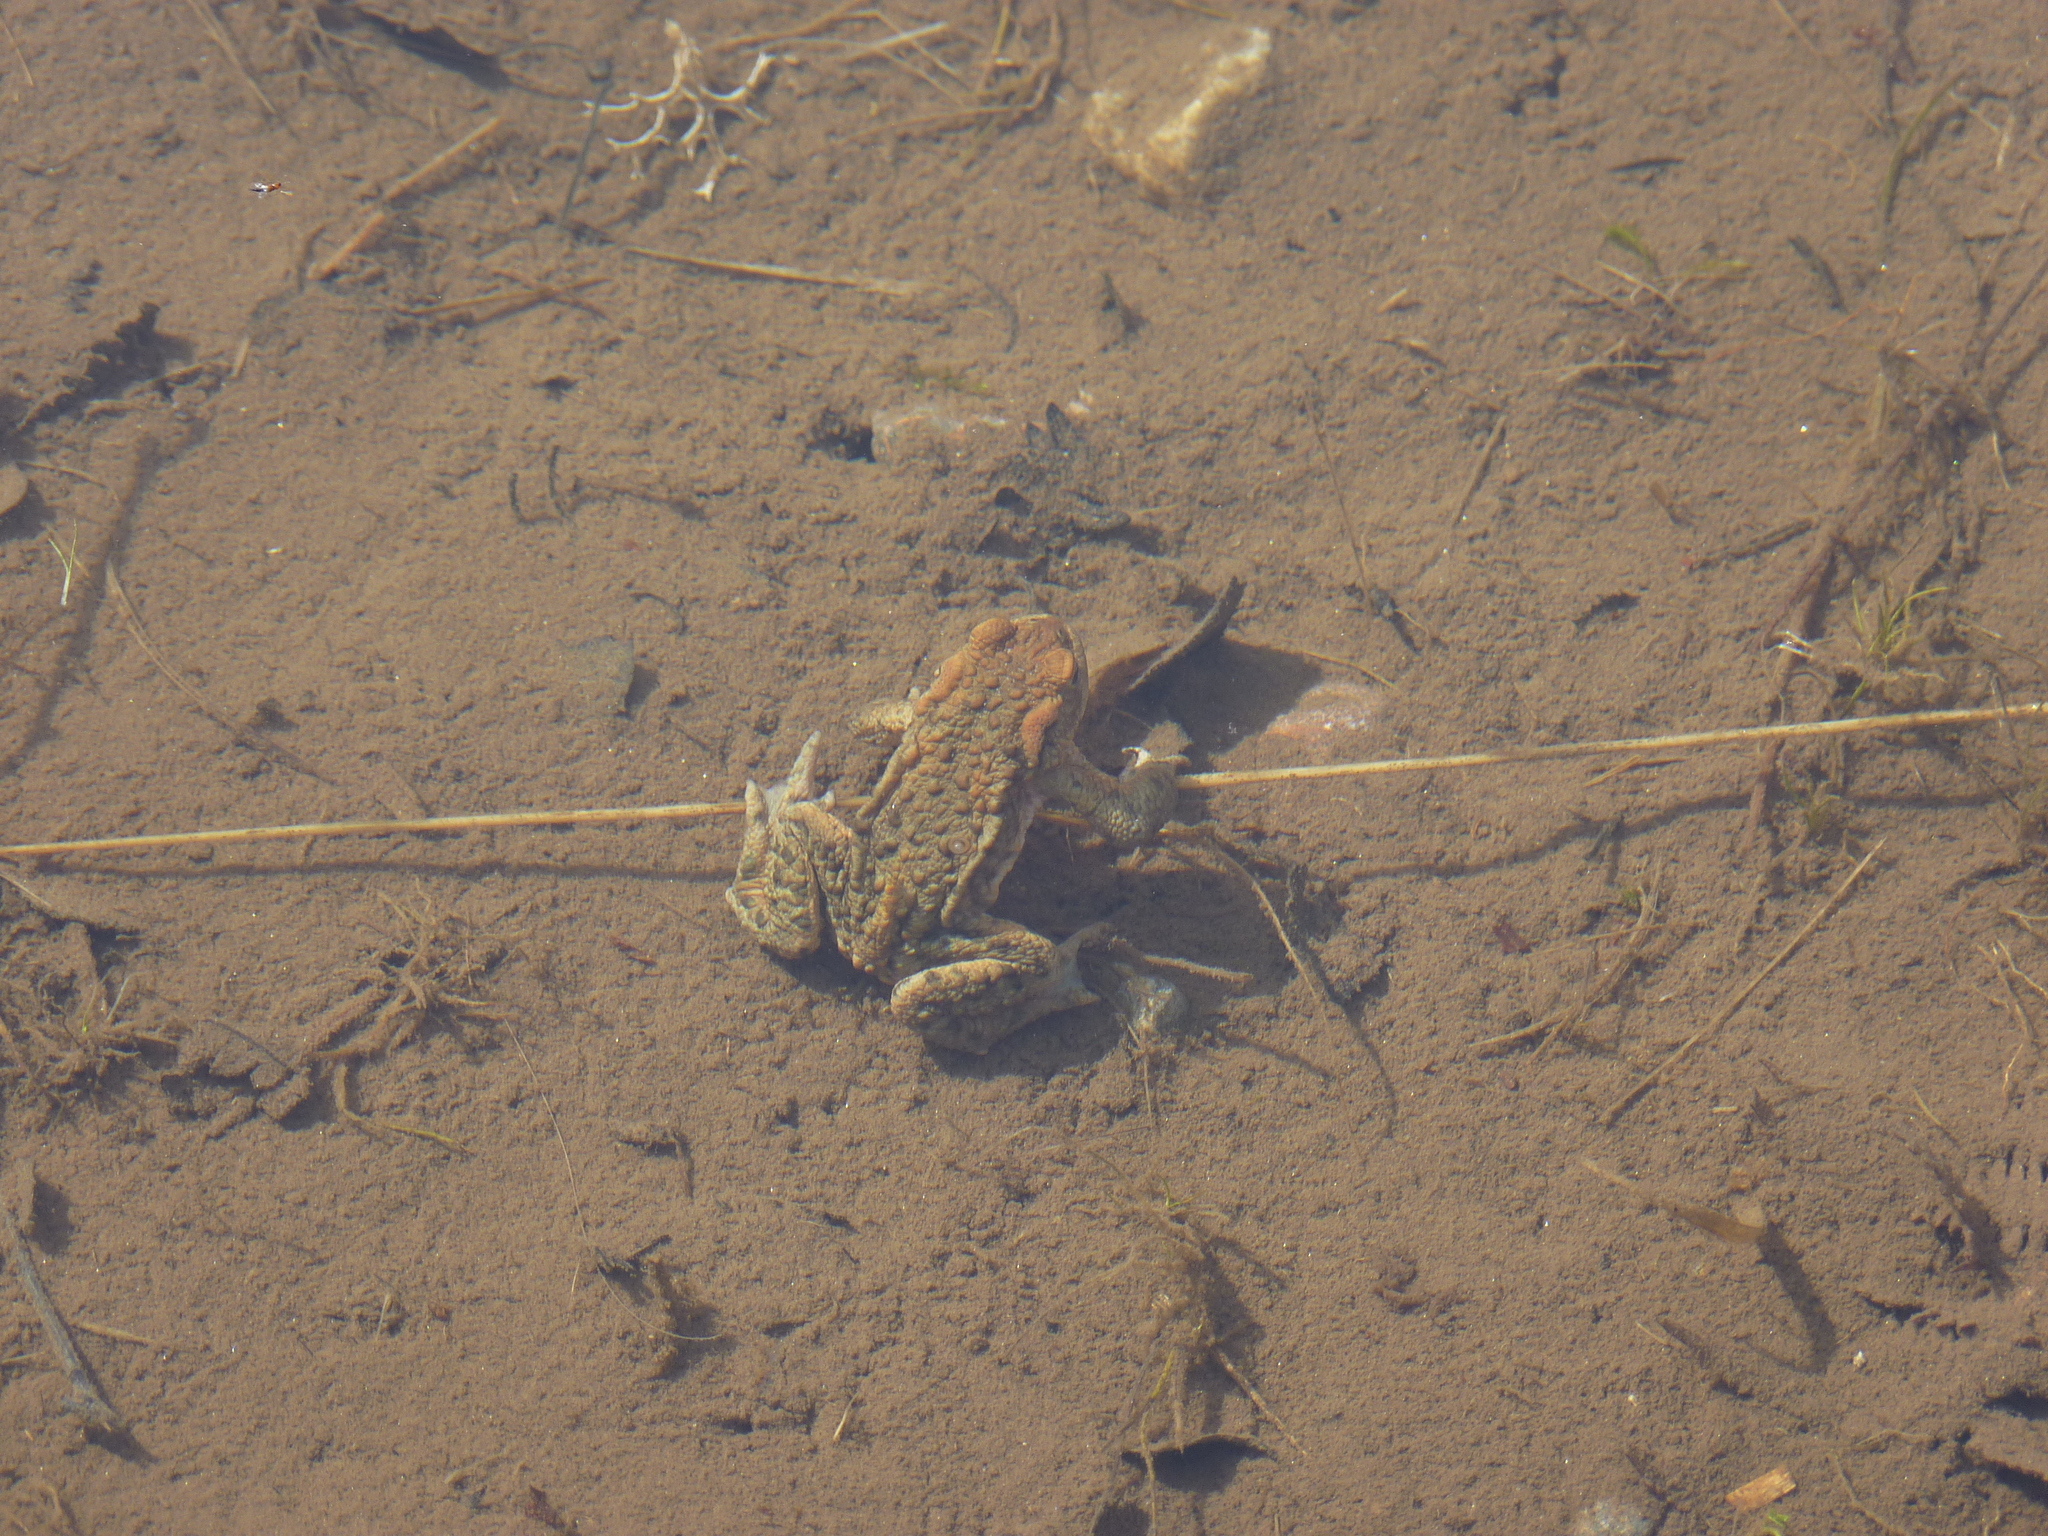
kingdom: Animalia
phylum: Chordata
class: Amphibia
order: Anura
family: Bufonidae
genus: Bufo
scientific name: Bufo bufo
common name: Common toad
